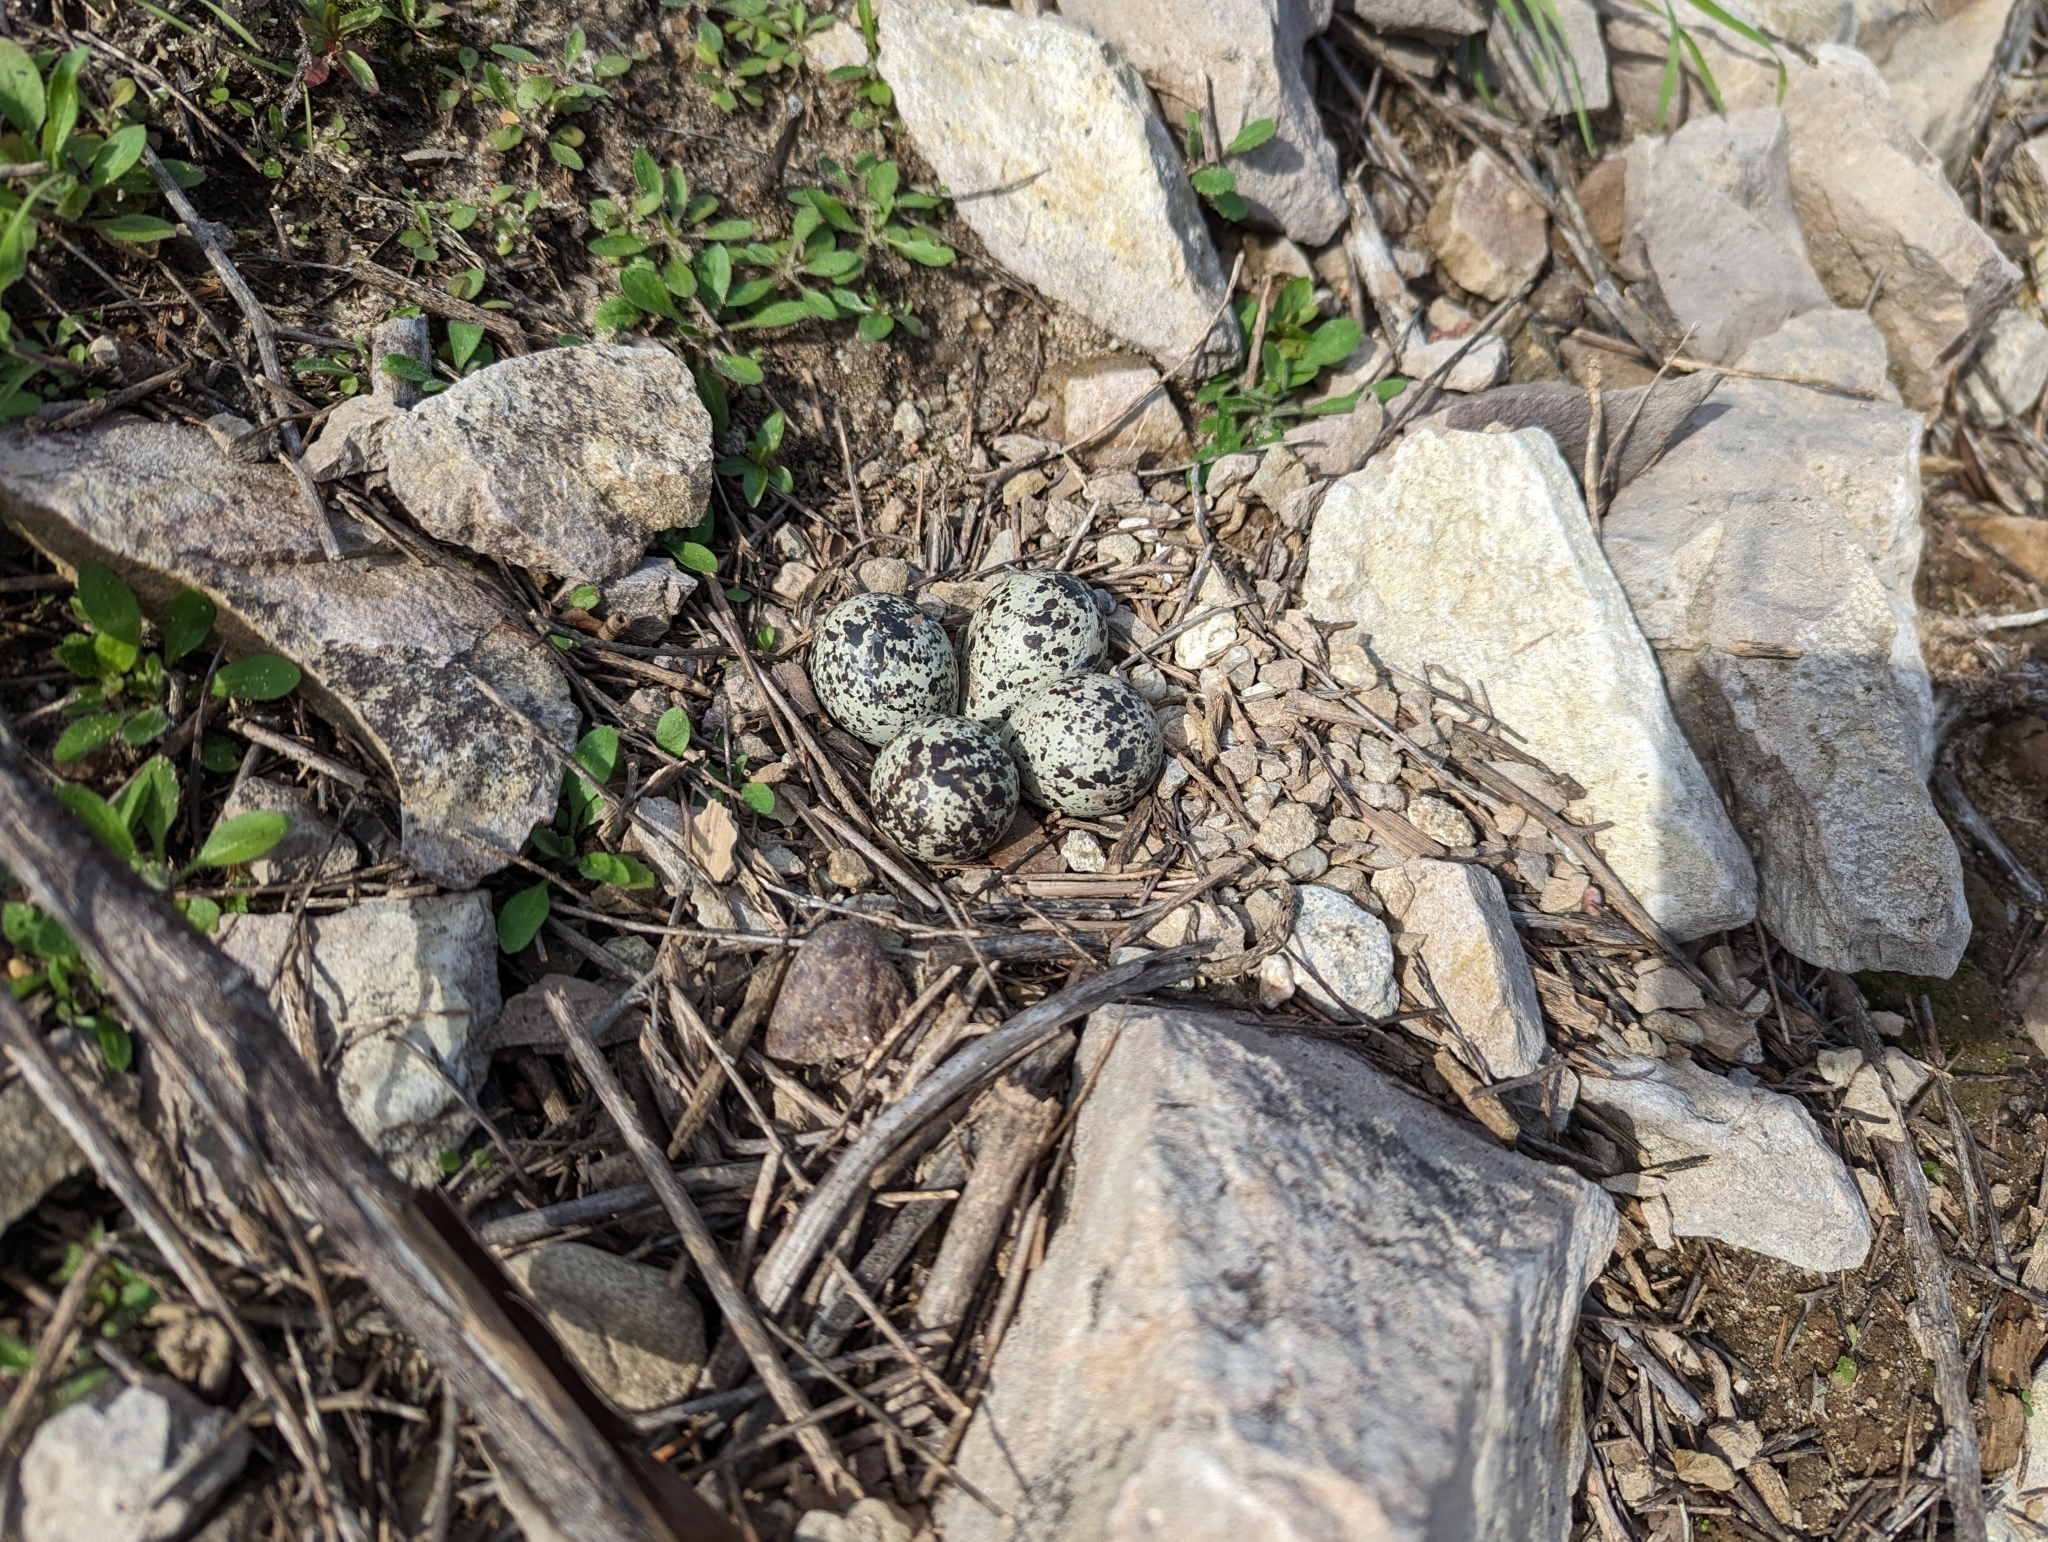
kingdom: Animalia
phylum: Chordata
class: Aves
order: Charadriiformes
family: Charadriidae
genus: Charadrius
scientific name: Charadrius vociferus
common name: Killdeer
